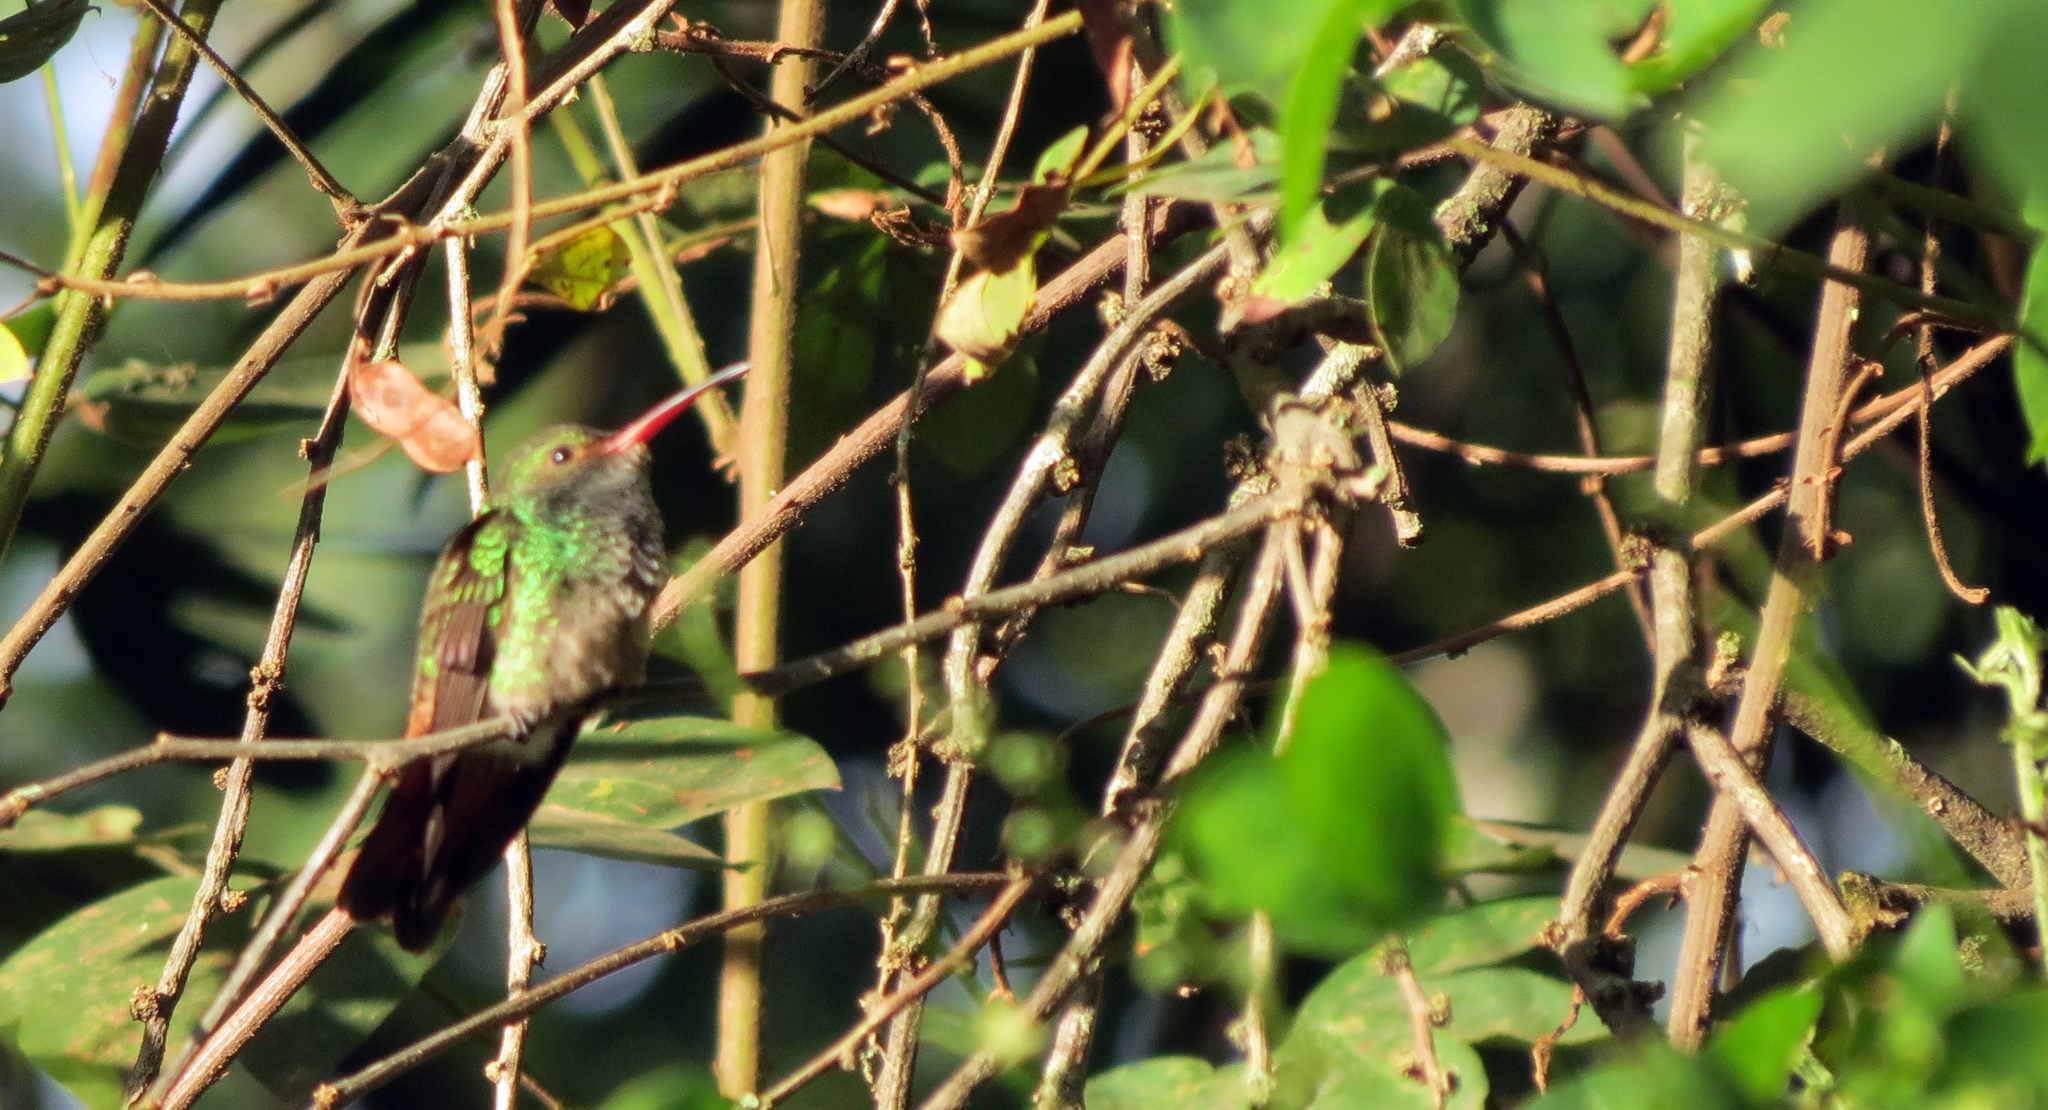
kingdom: Animalia
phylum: Chordata
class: Aves
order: Apodiformes
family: Trochilidae
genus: Amazilia
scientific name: Amazilia tzacatl
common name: Rufous-tailed hummingbird
